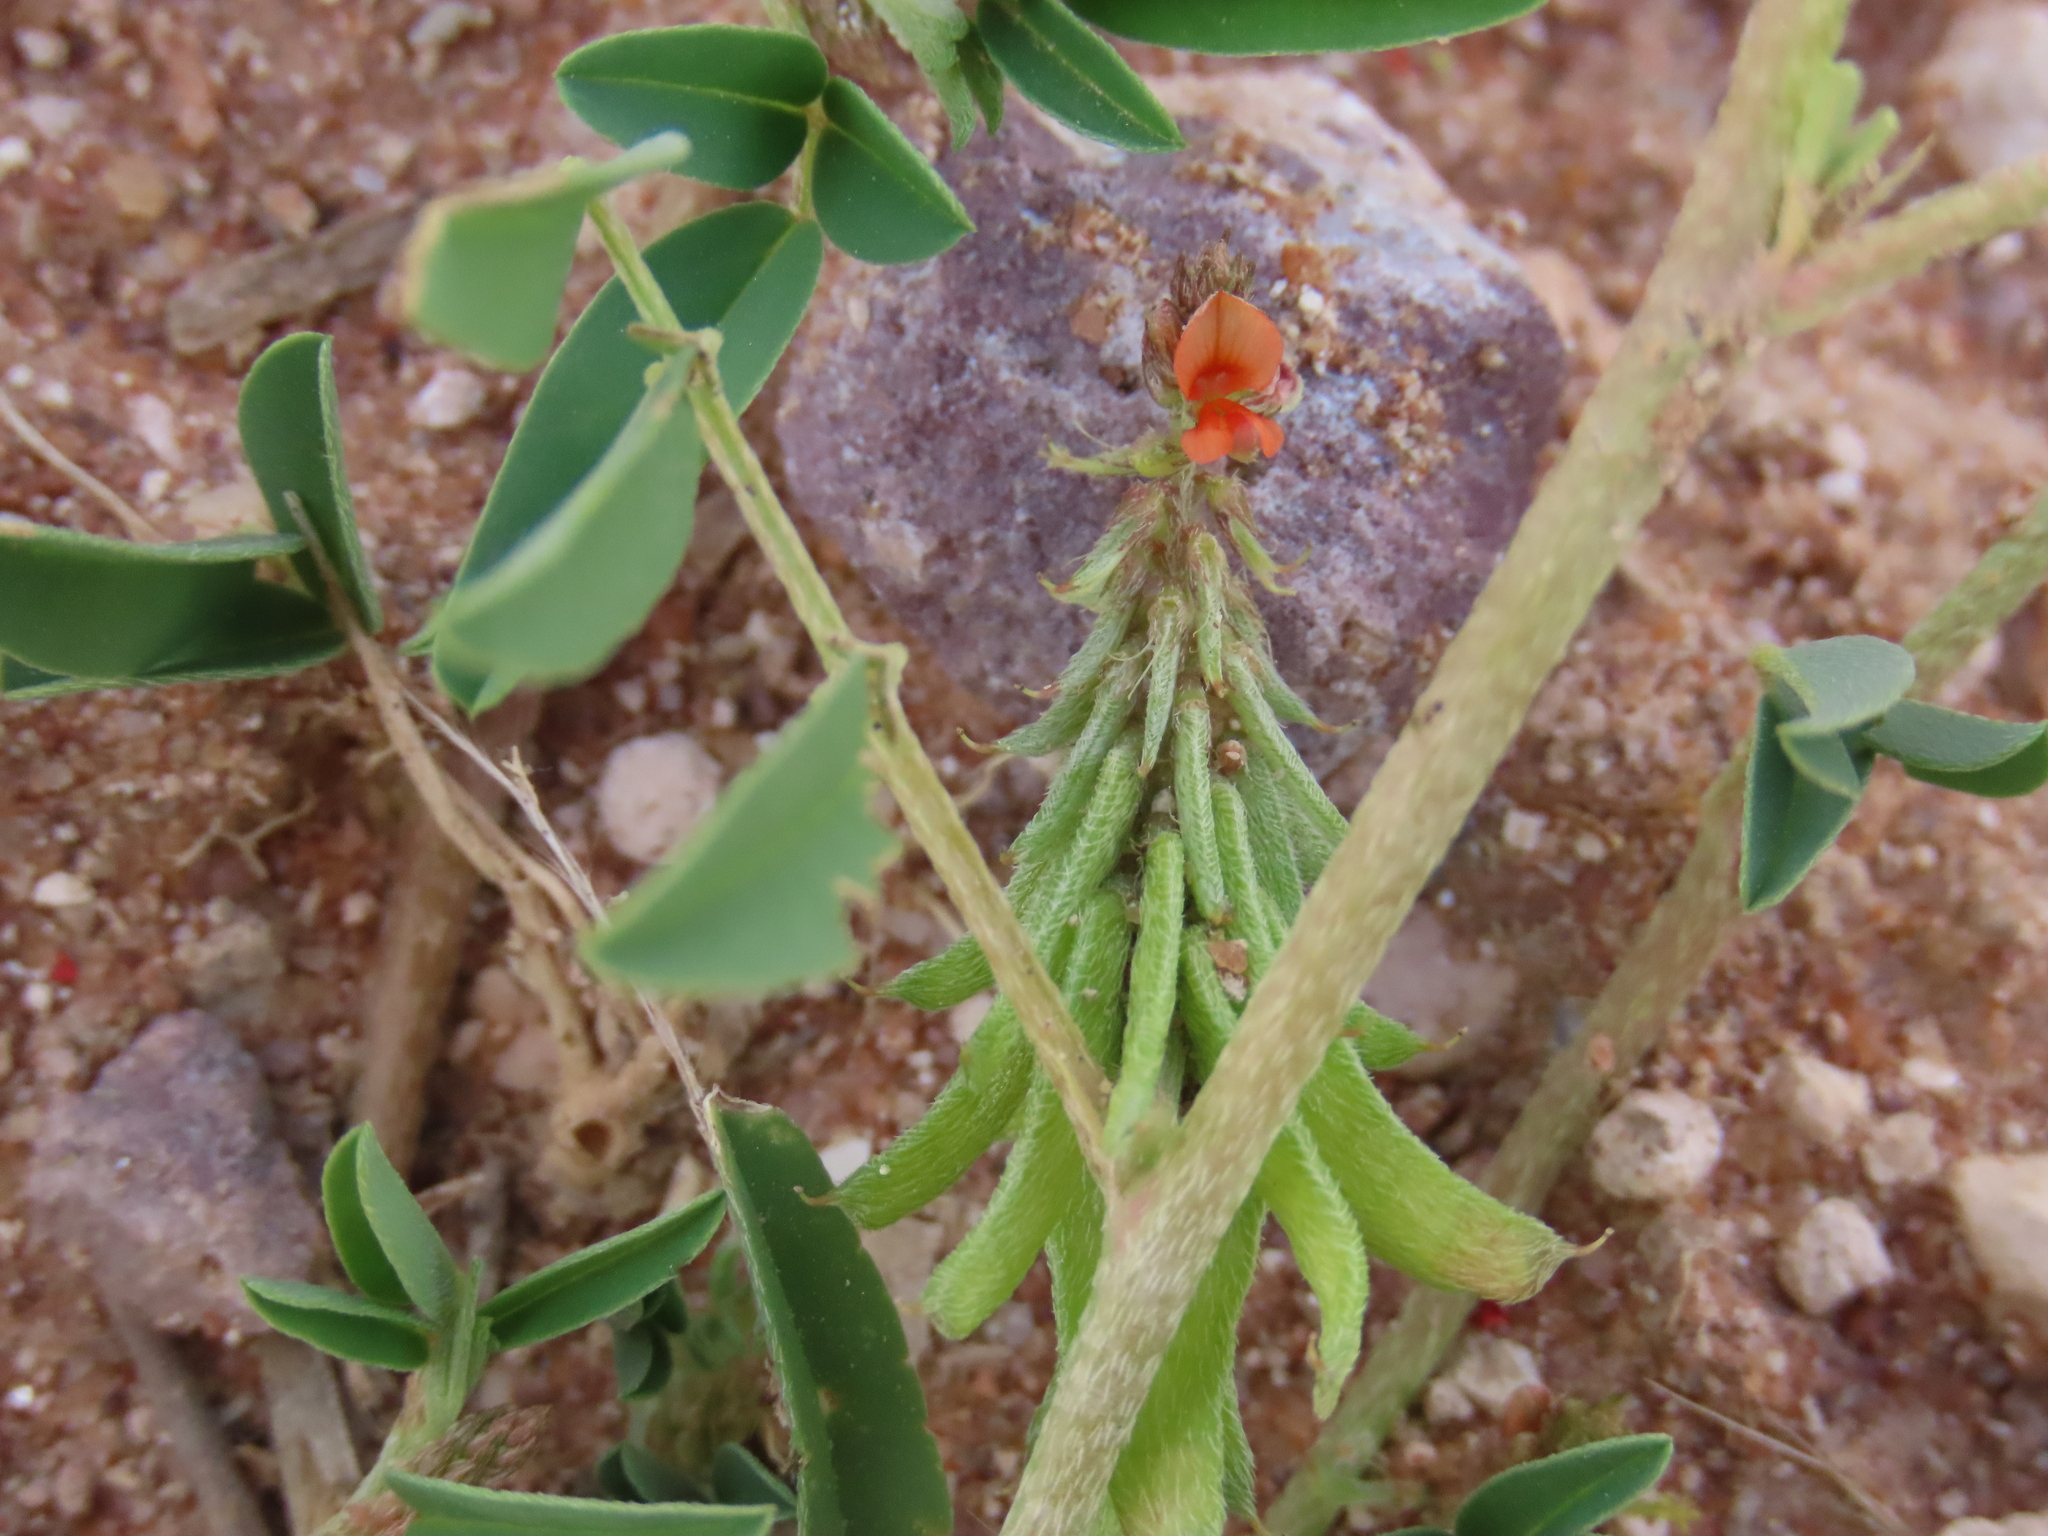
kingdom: Plantae
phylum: Tracheophyta
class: Magnoliopsida
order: Fabales
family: Fabaceae
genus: Indigofera
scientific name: Indigofera hochstetteri
